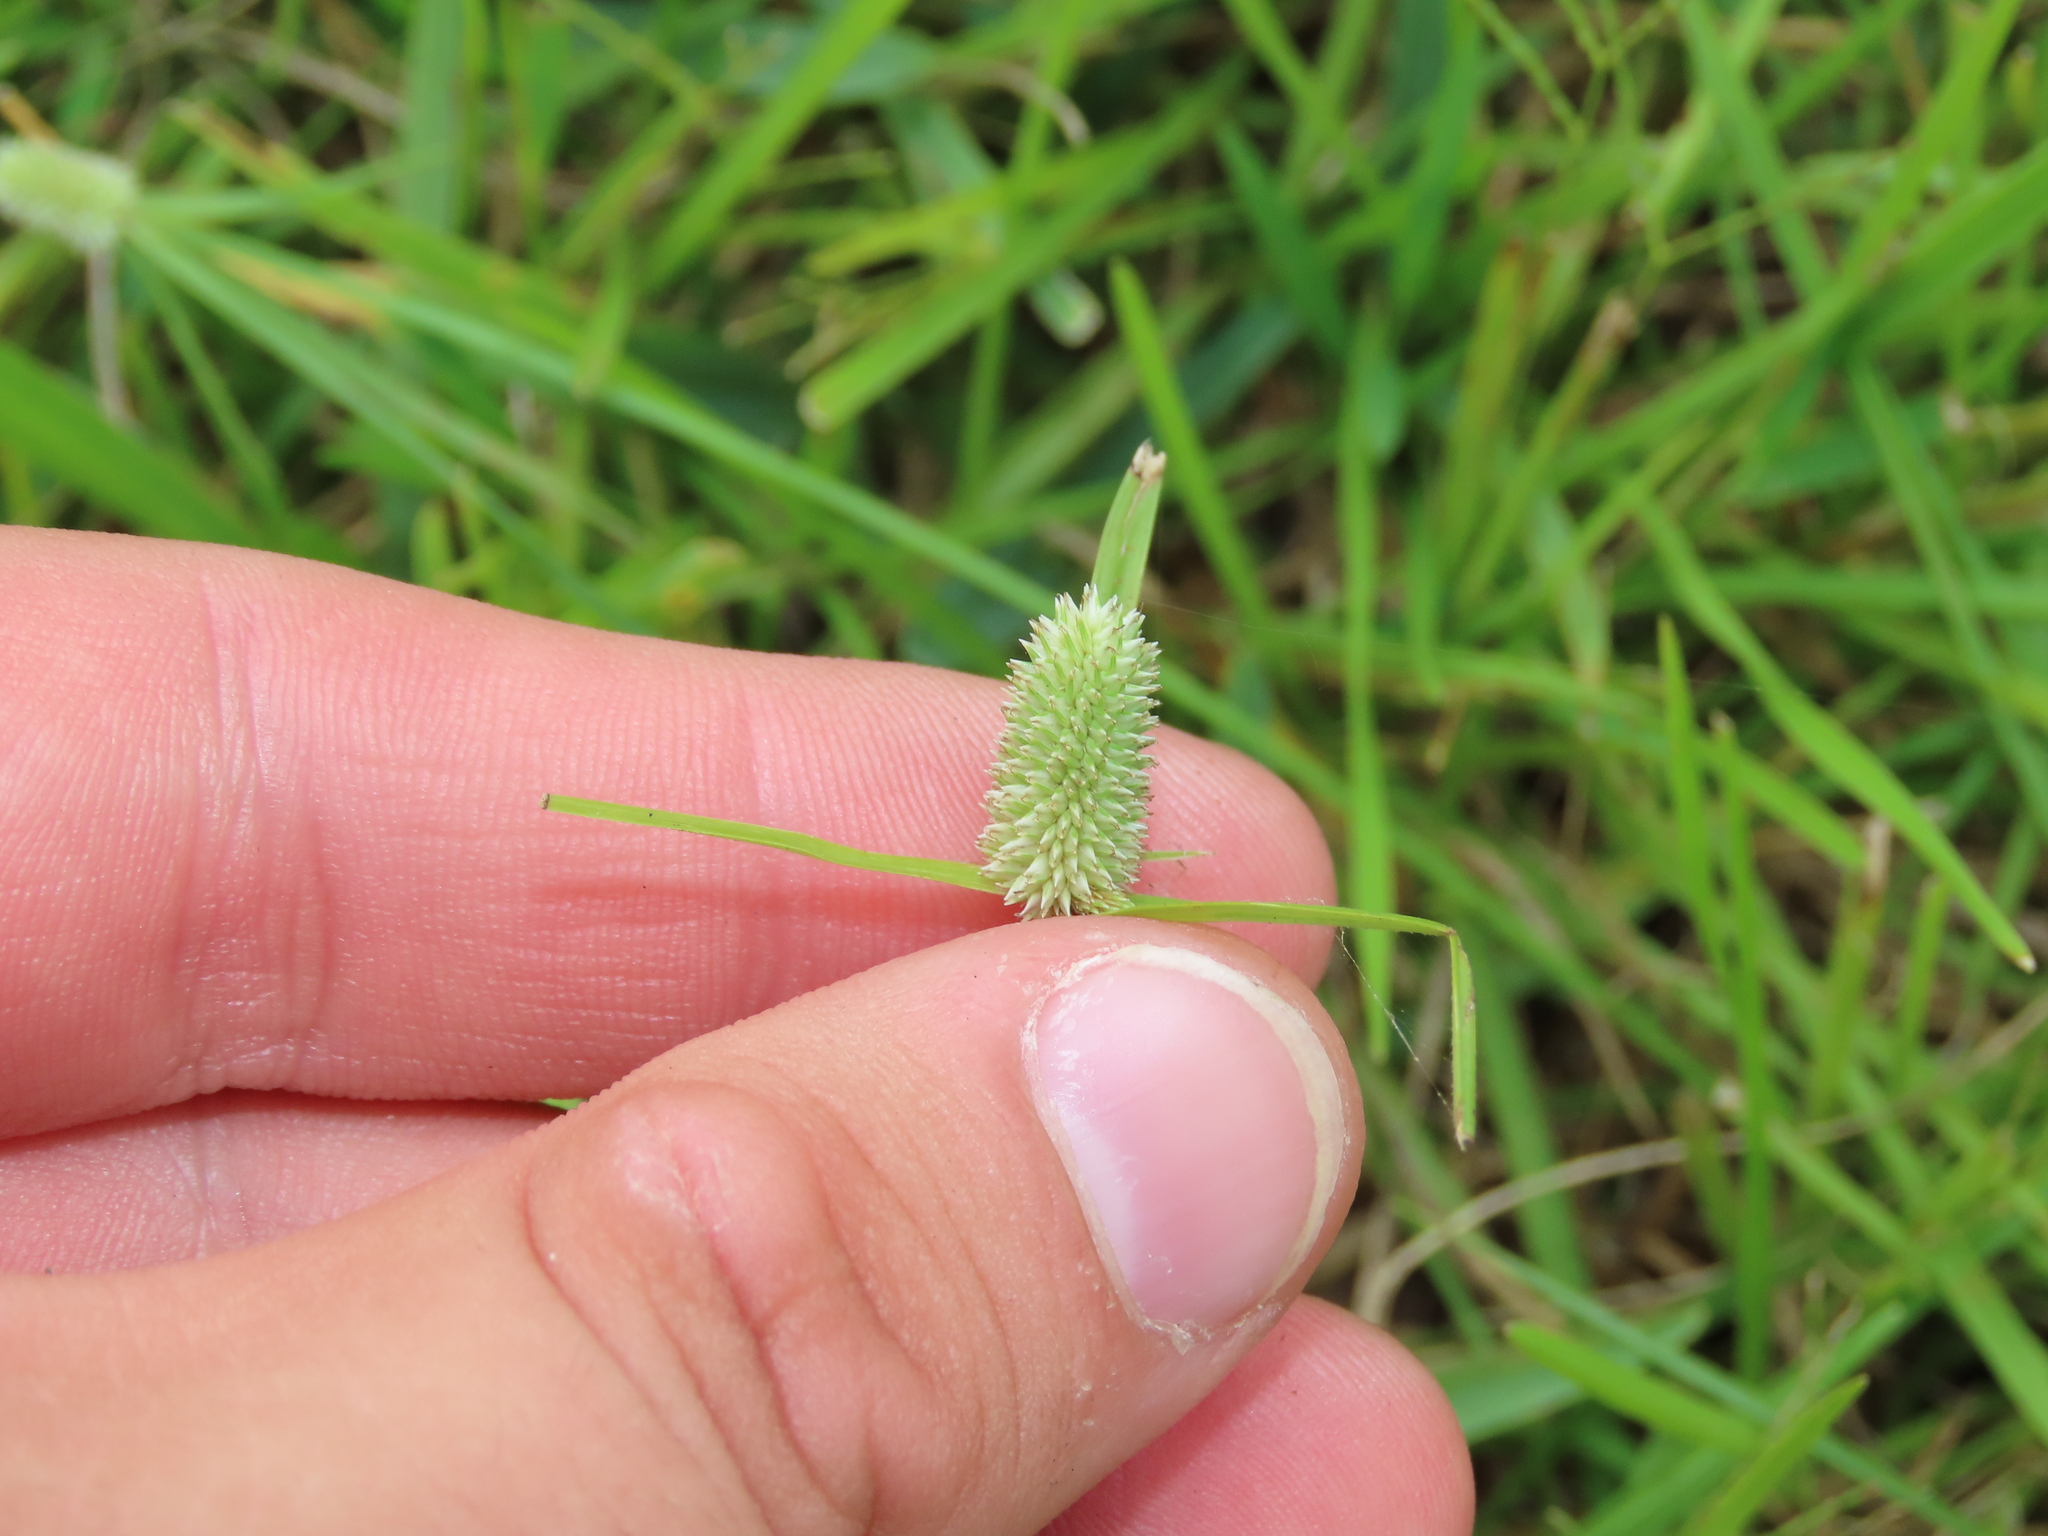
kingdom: Plantae
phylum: Tracheophyta
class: Liliopsida
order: Poales
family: Cyperaceae
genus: Cyperus
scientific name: Cyperus sesquiflorus
